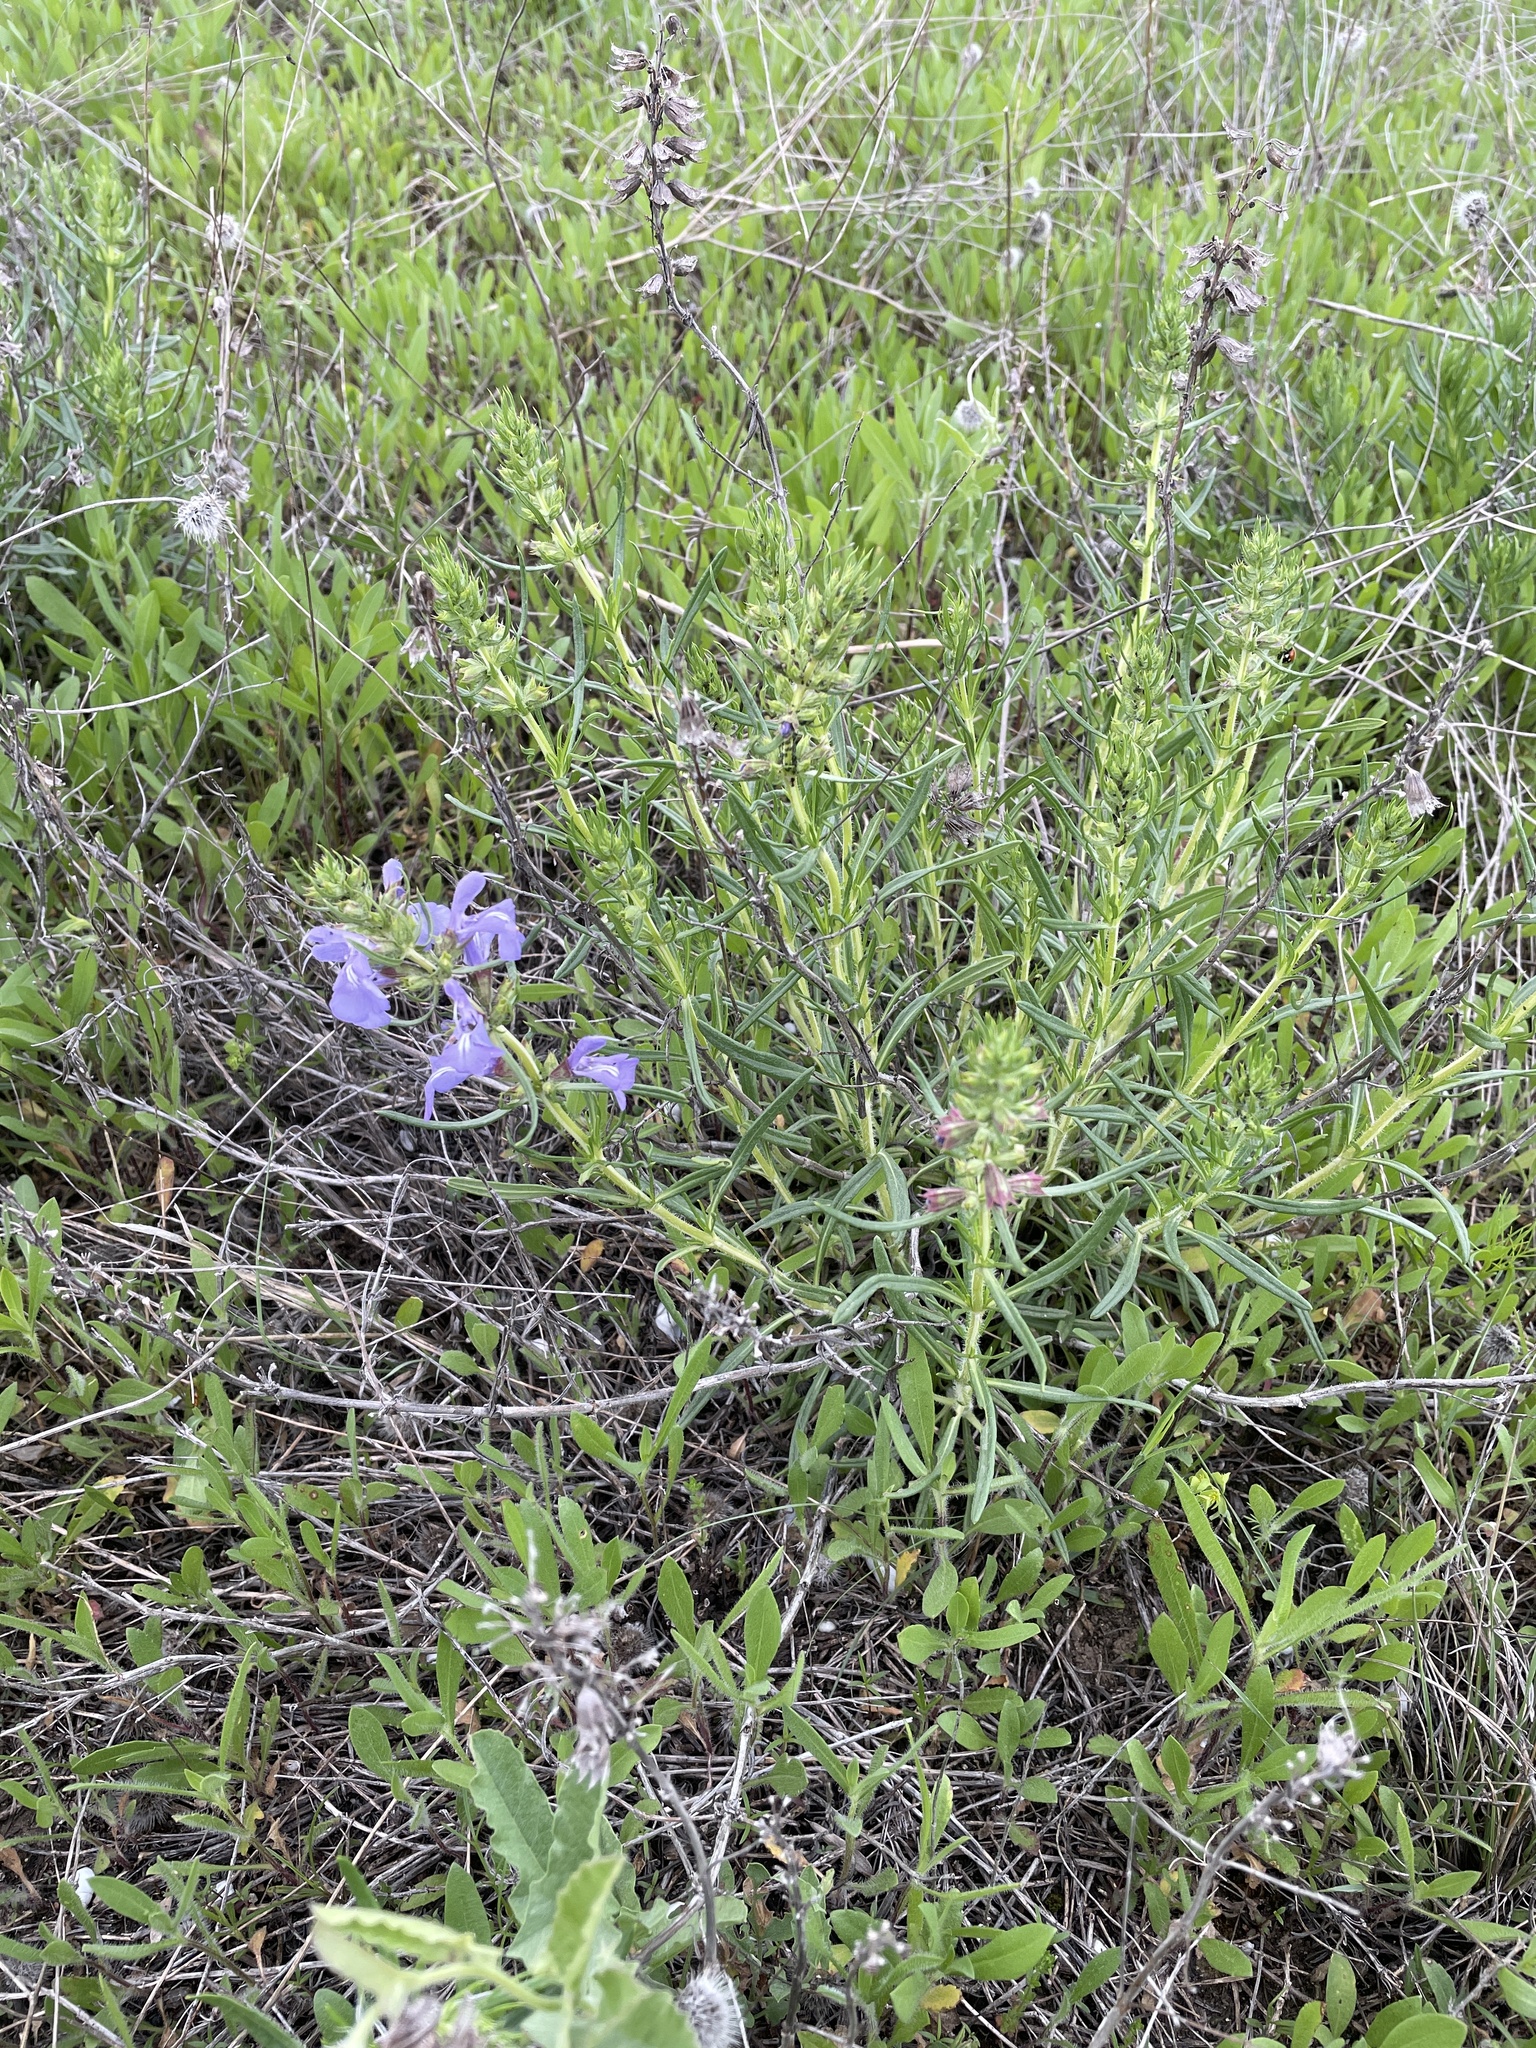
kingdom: Plantae
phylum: Tracheophyta
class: Magnoliopsida
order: Lamiales
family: Lamiaceae
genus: Salvia
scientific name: Salvia engelmannii
